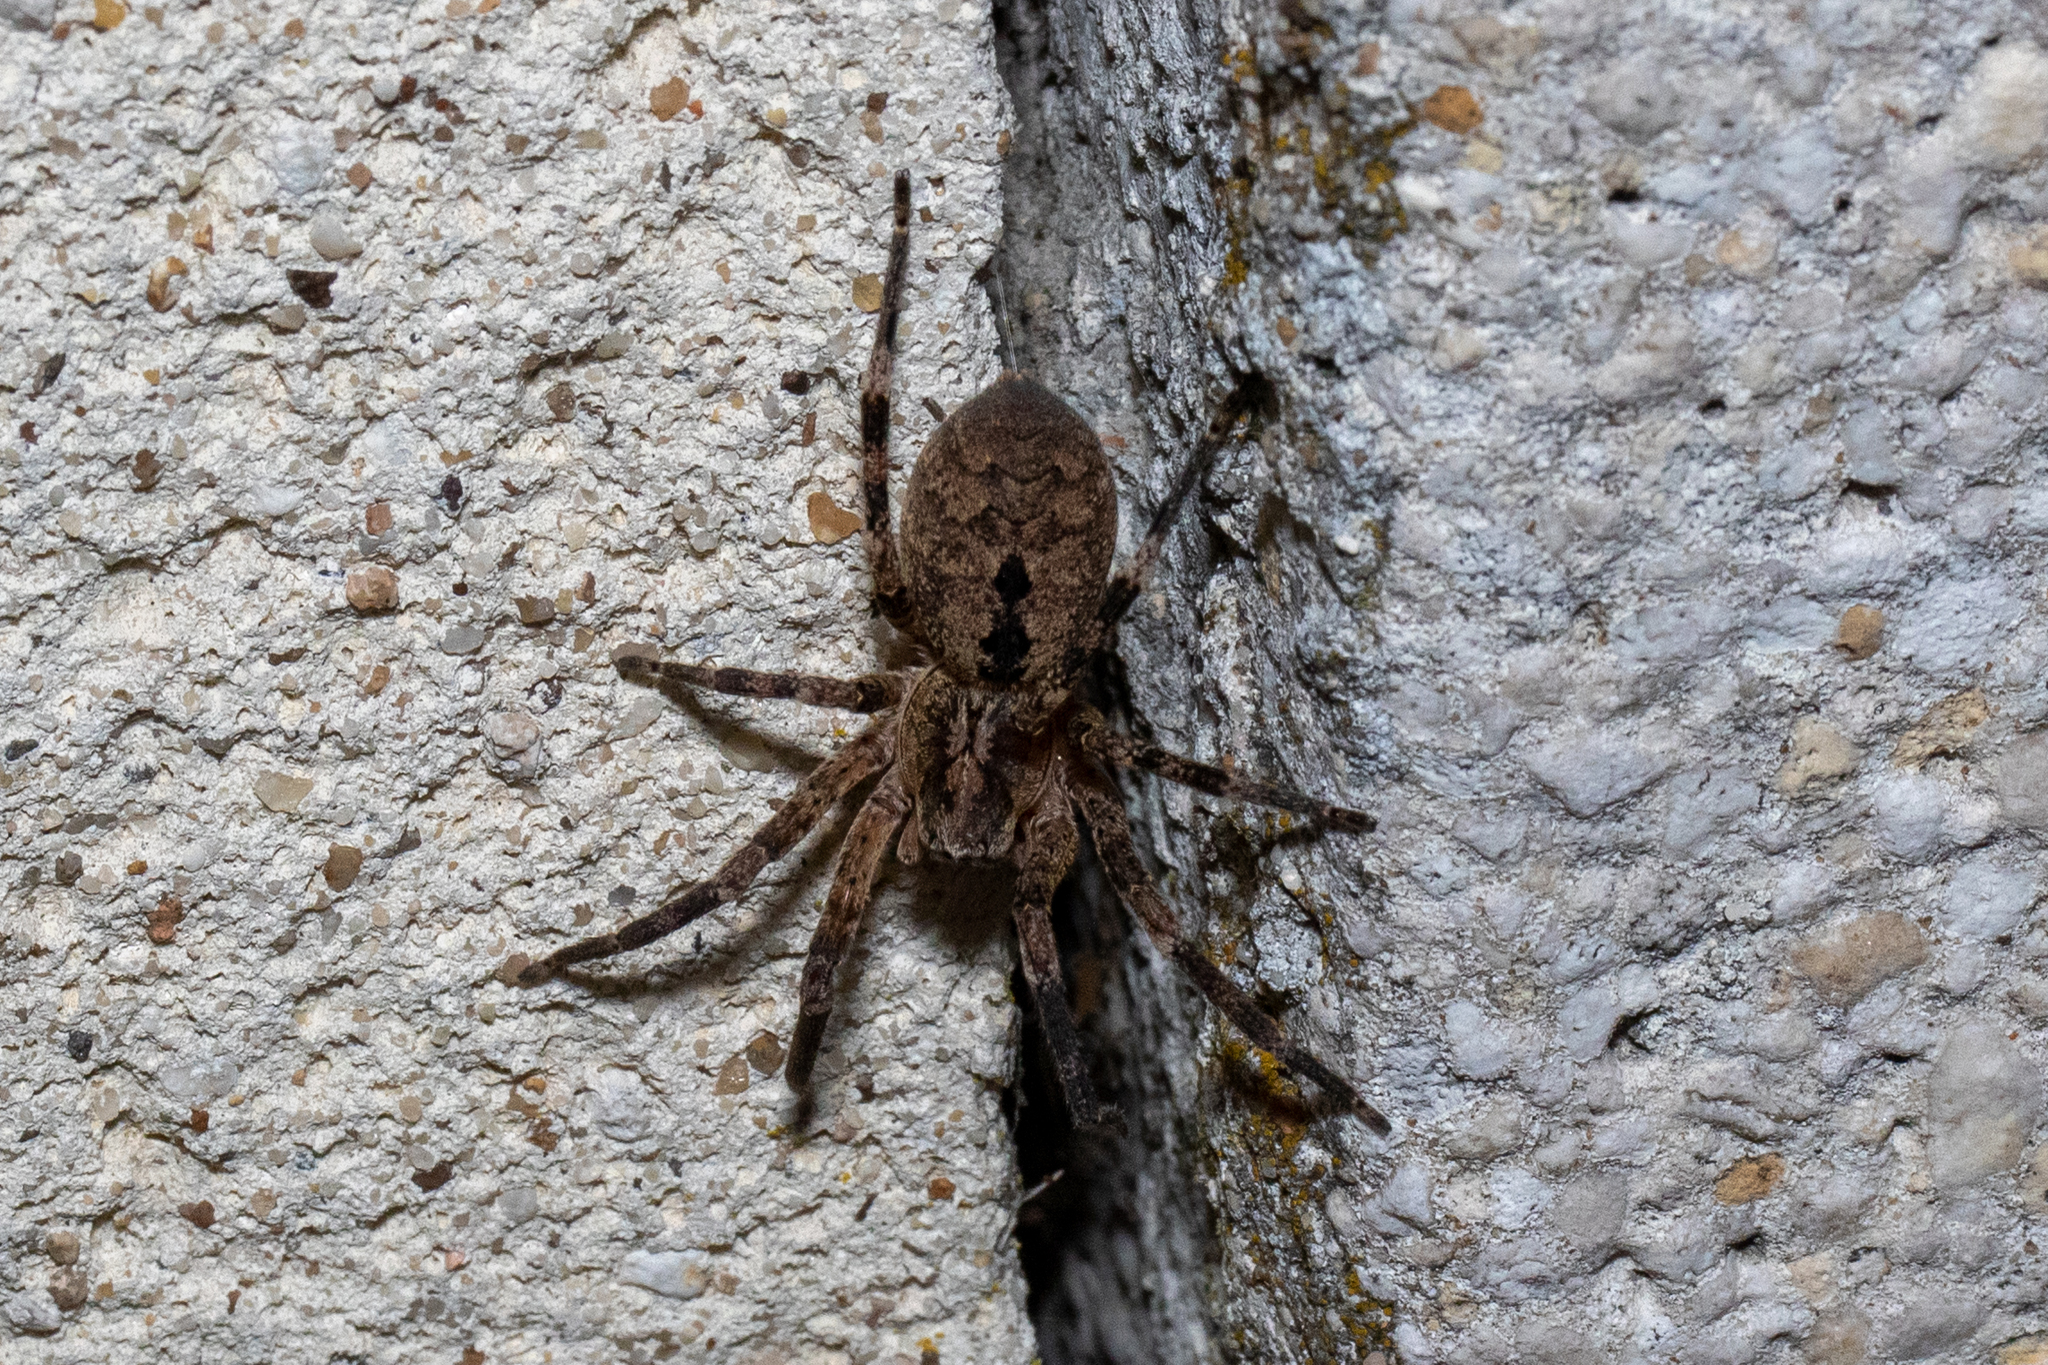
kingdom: Animalia
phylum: Arthropoda
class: Arachnida
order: Araneae
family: Zoropsidae
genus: Zoropsis
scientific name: Zoropsis spinimana
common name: Zoropsid spider
